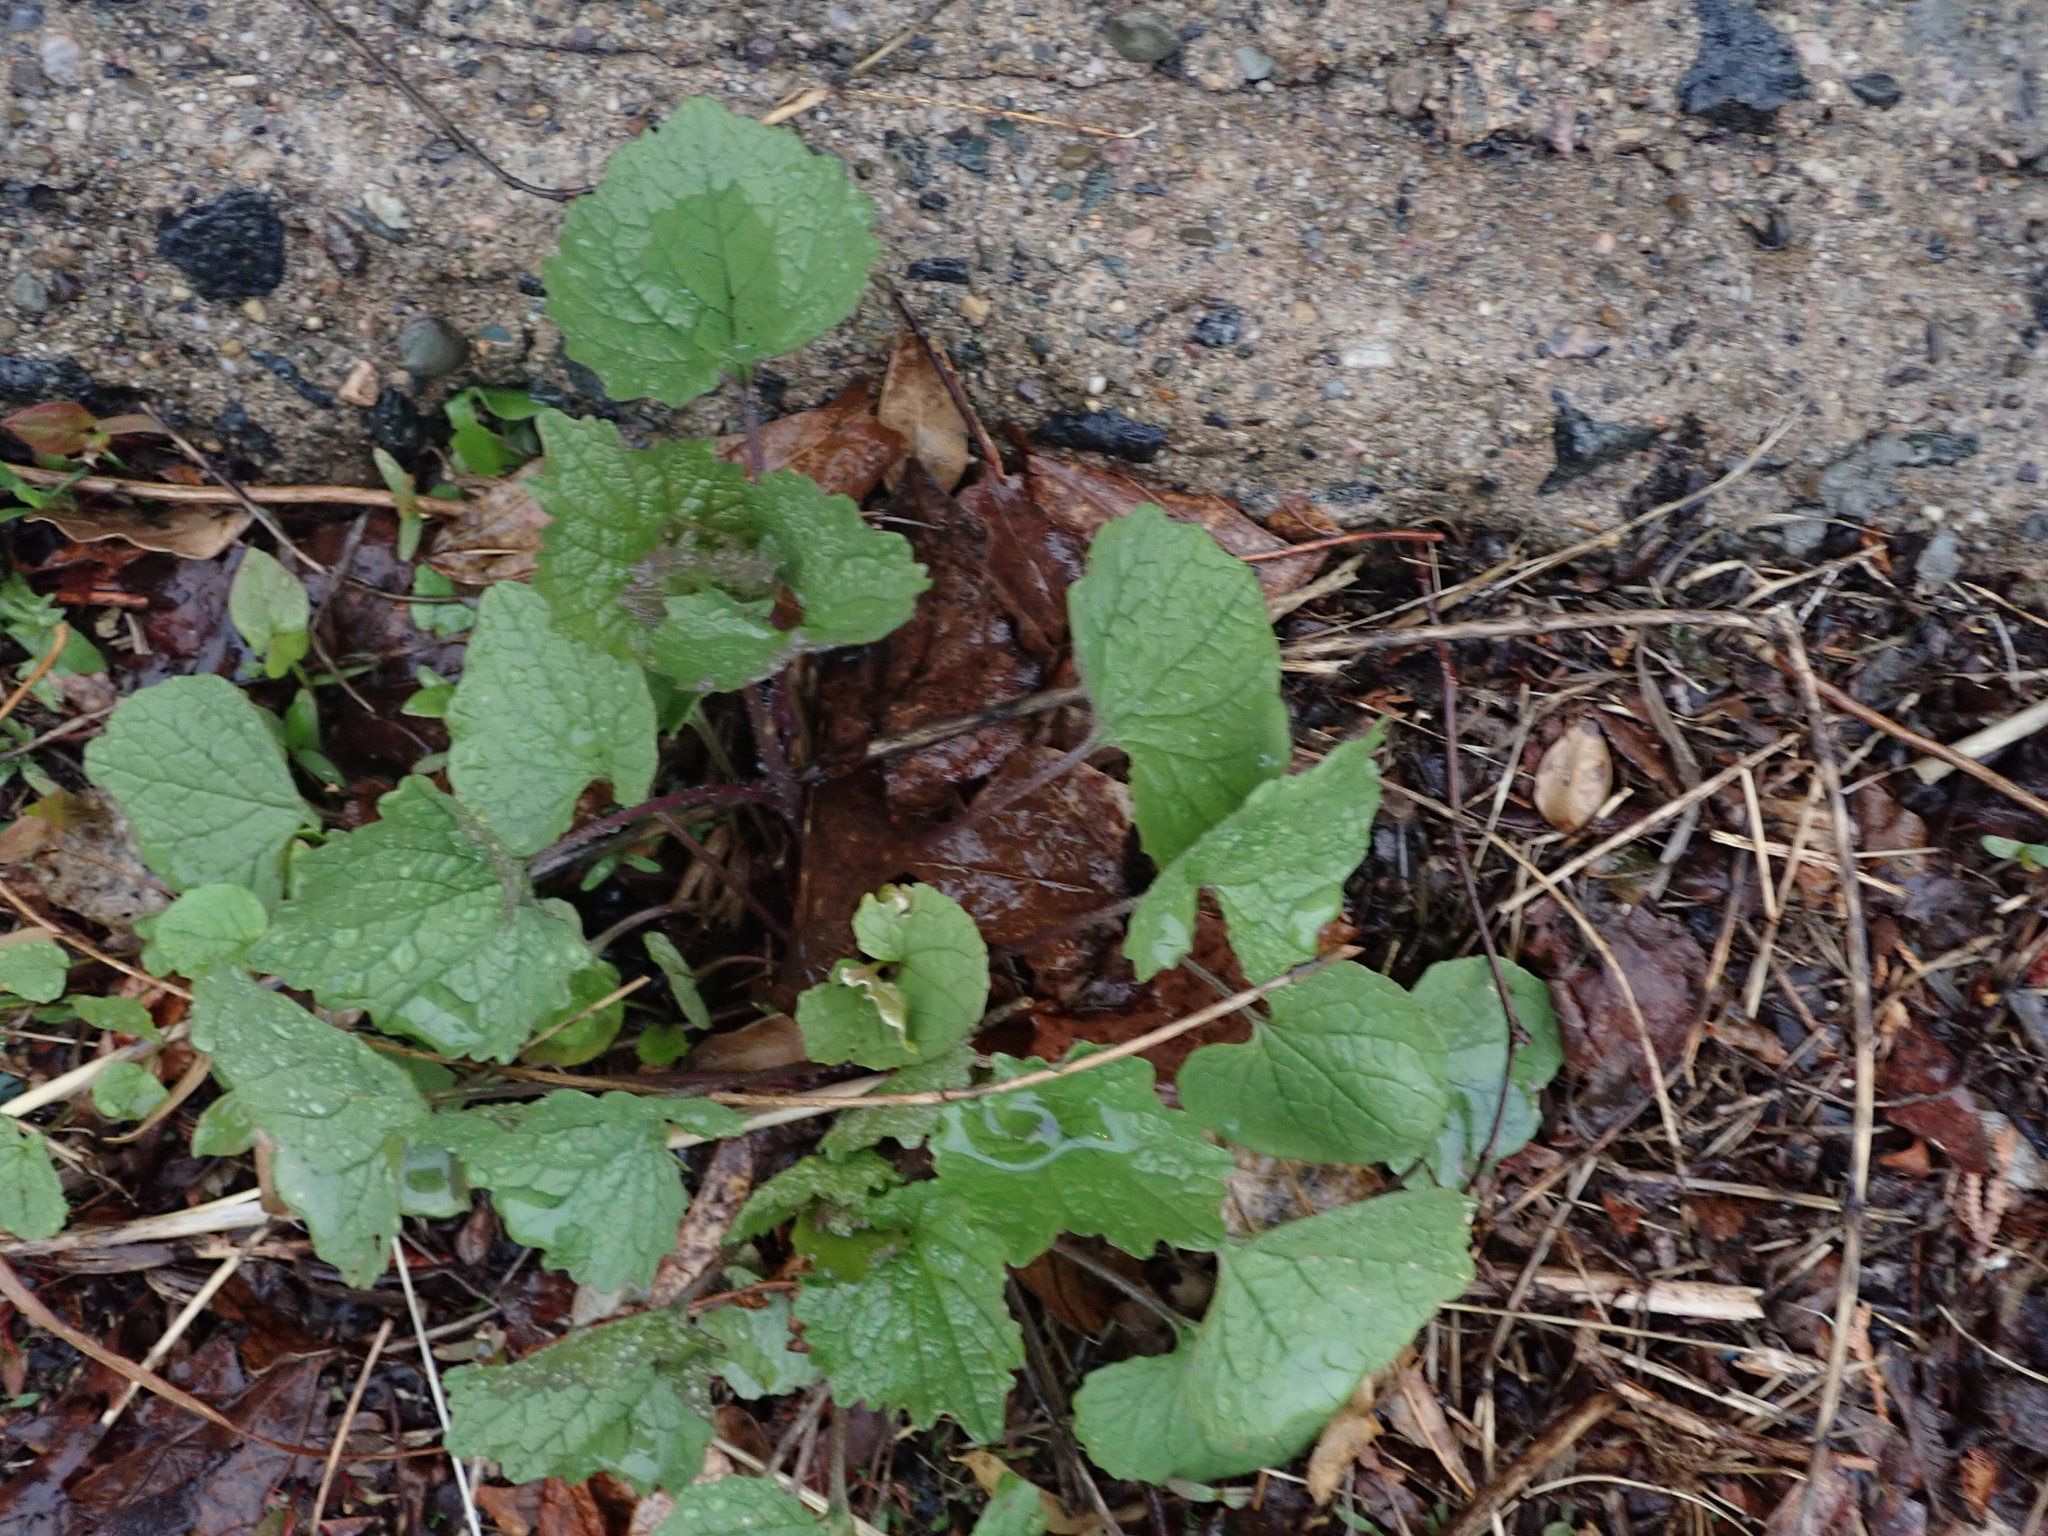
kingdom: Plantae
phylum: Tracheophyta
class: Magnoliopsida
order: Brassicales
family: Brassicaceae
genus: Alliaria
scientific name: Alliaria petiolata
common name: Garlic mustard
